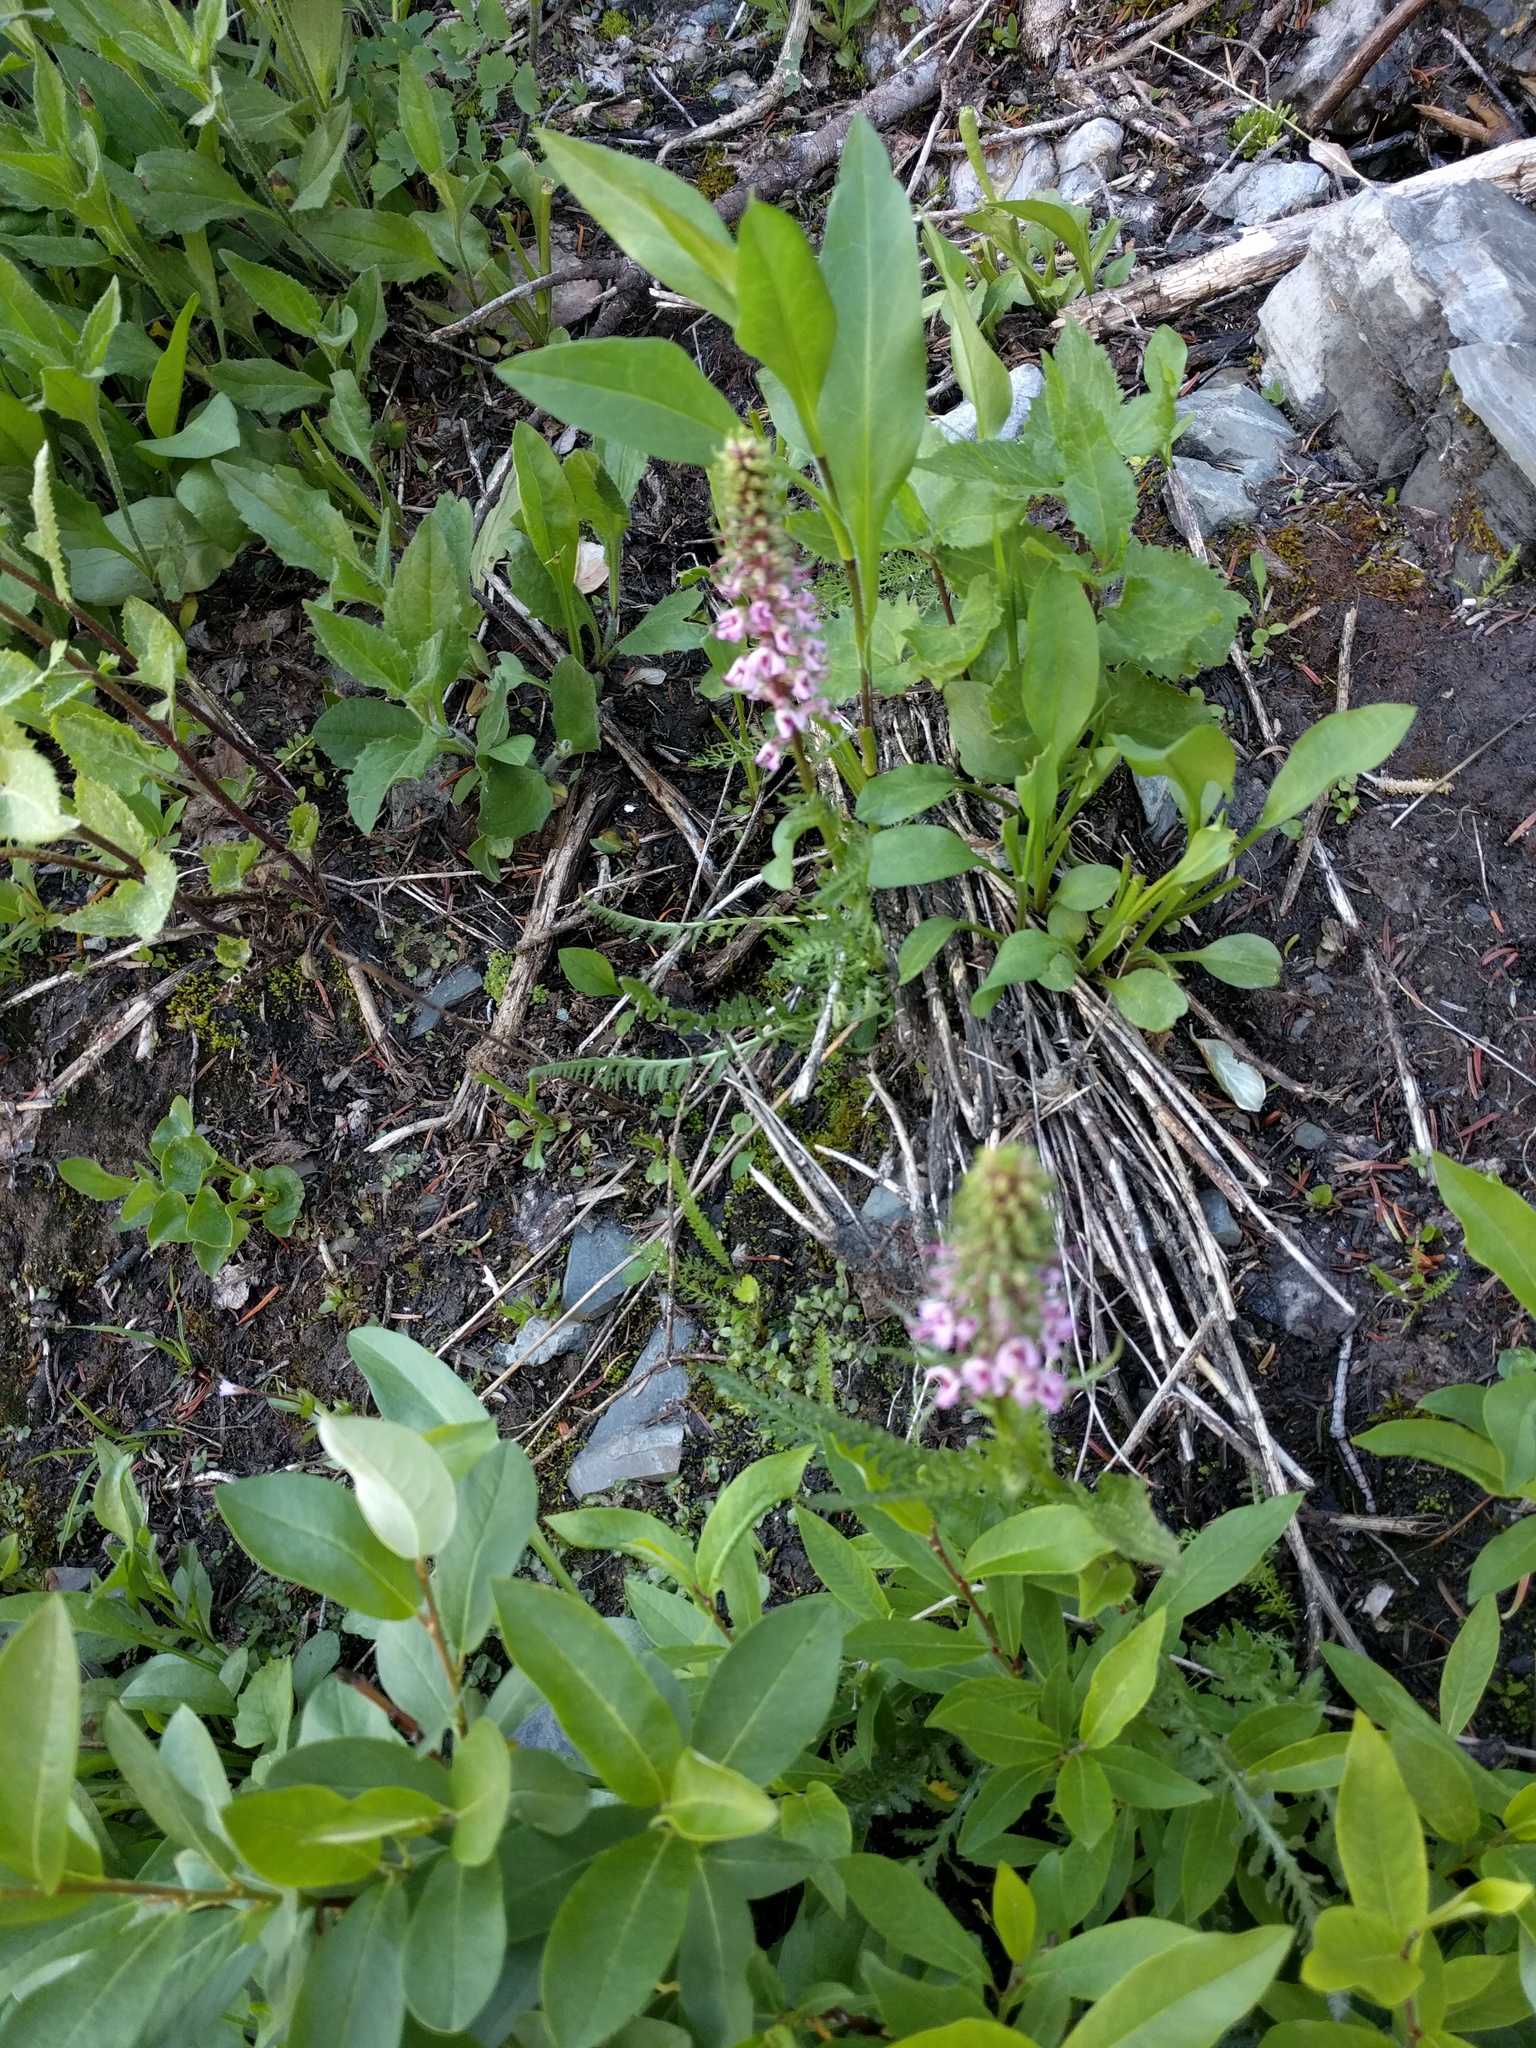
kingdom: Plantae
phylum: Tracheophyta
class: Magnoliopsida
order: Lamiales
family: Orobanchaceae
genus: Pedicularis
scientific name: Pedicularis groenlandica
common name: Elephant's-head
